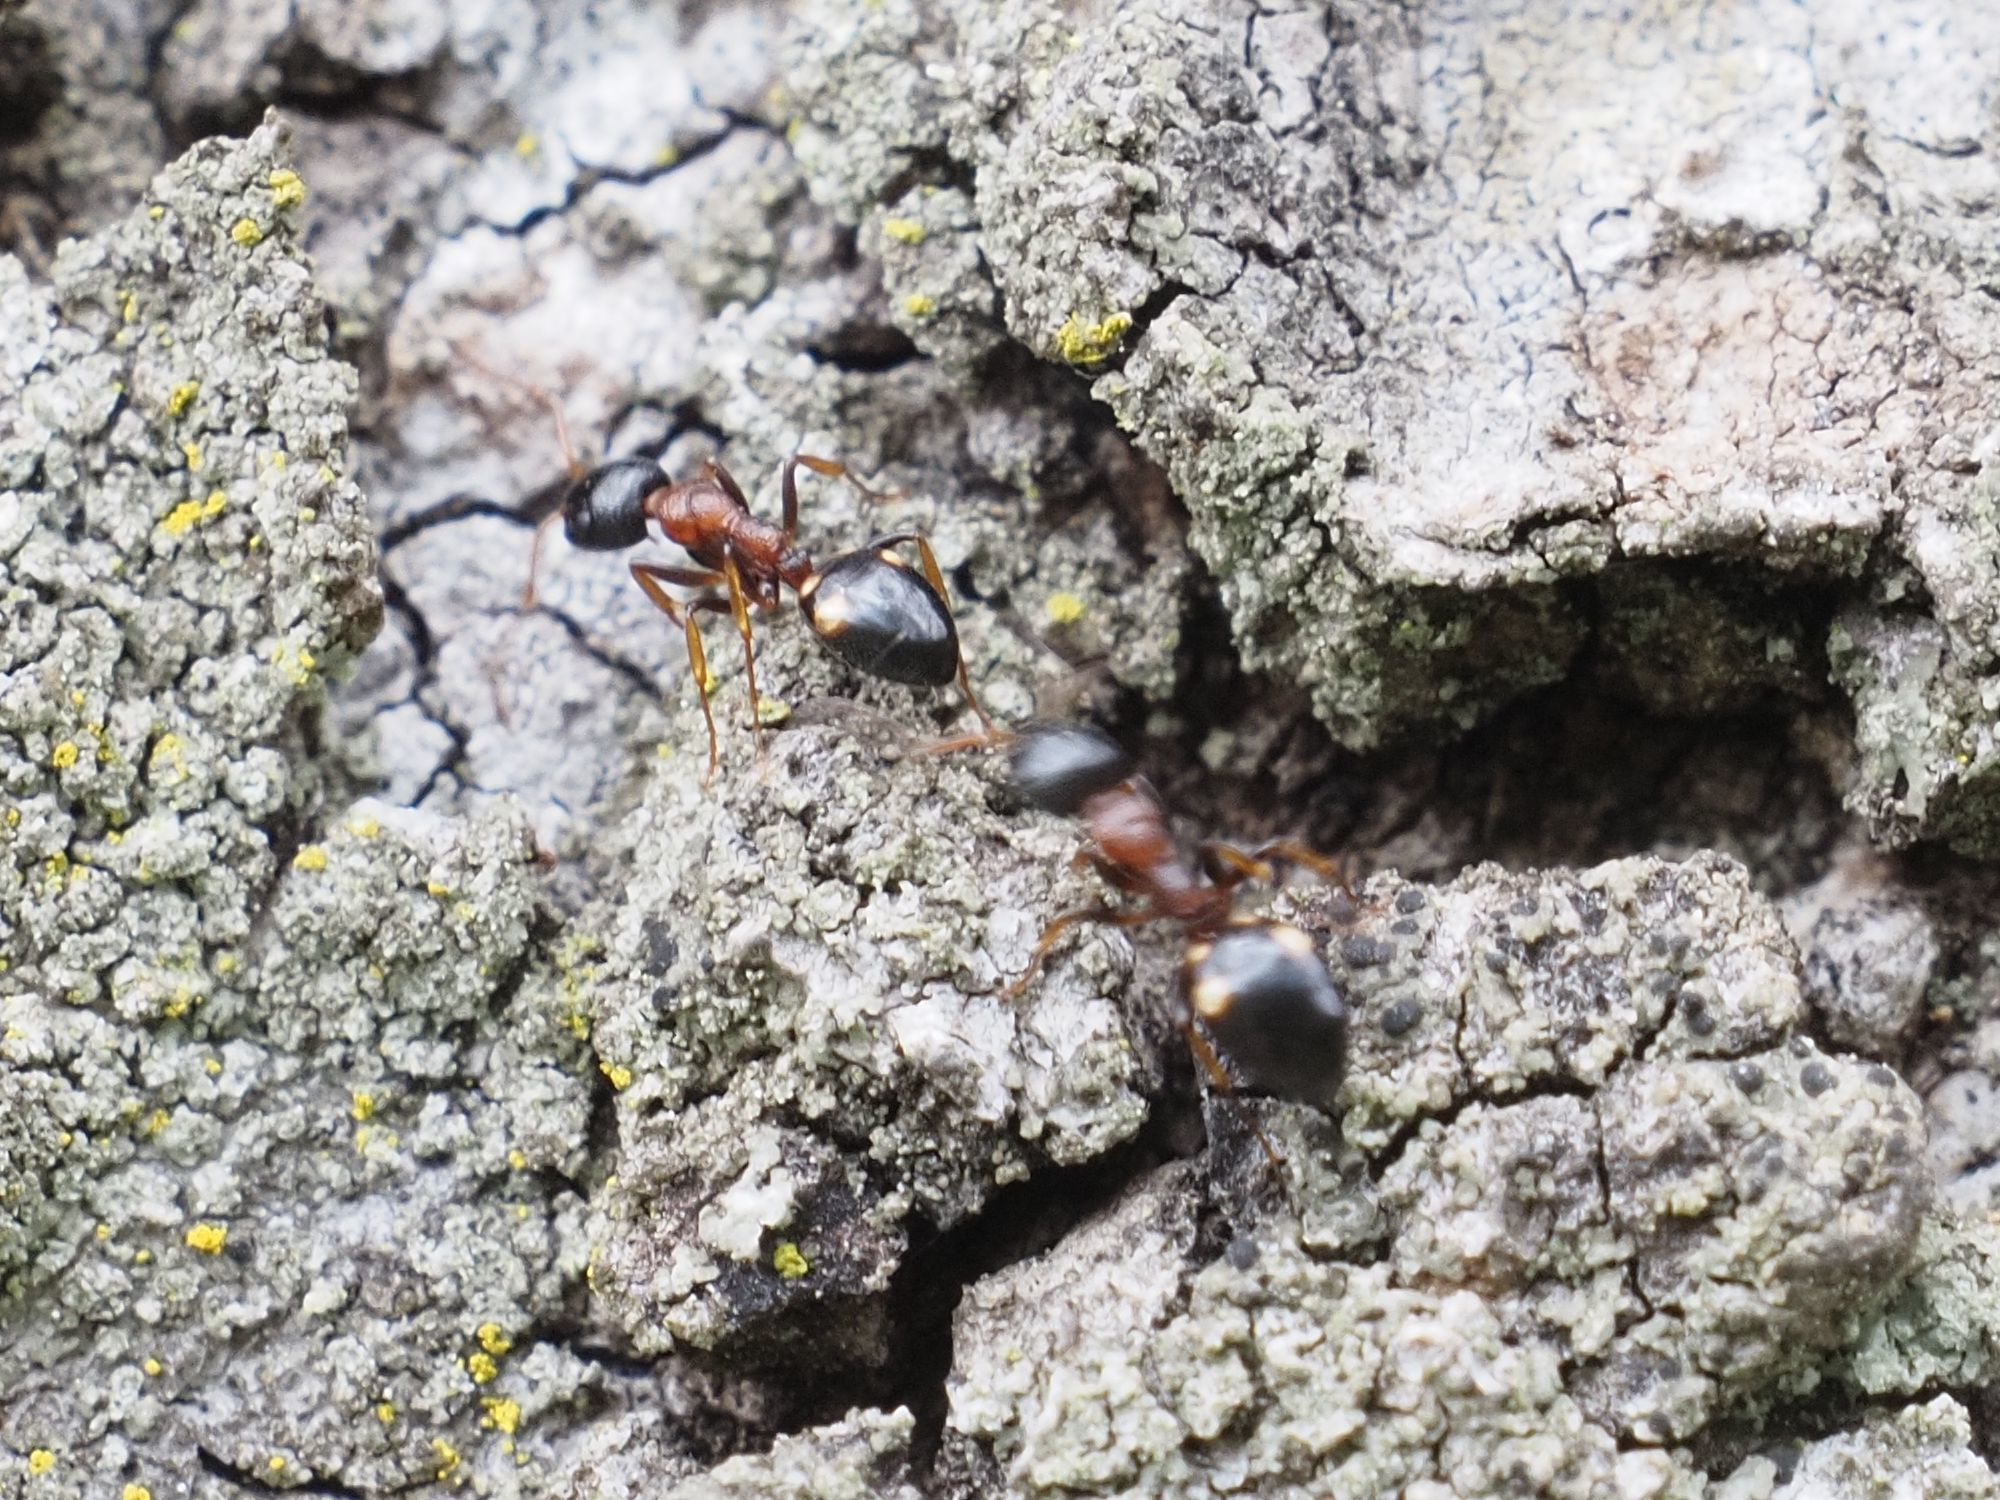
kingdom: Animalia
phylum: Arthropoda
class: Insecta
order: Hymenoptera
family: Formicidae
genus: Dolichoderus
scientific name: Dolichoderus quadripunctatus
